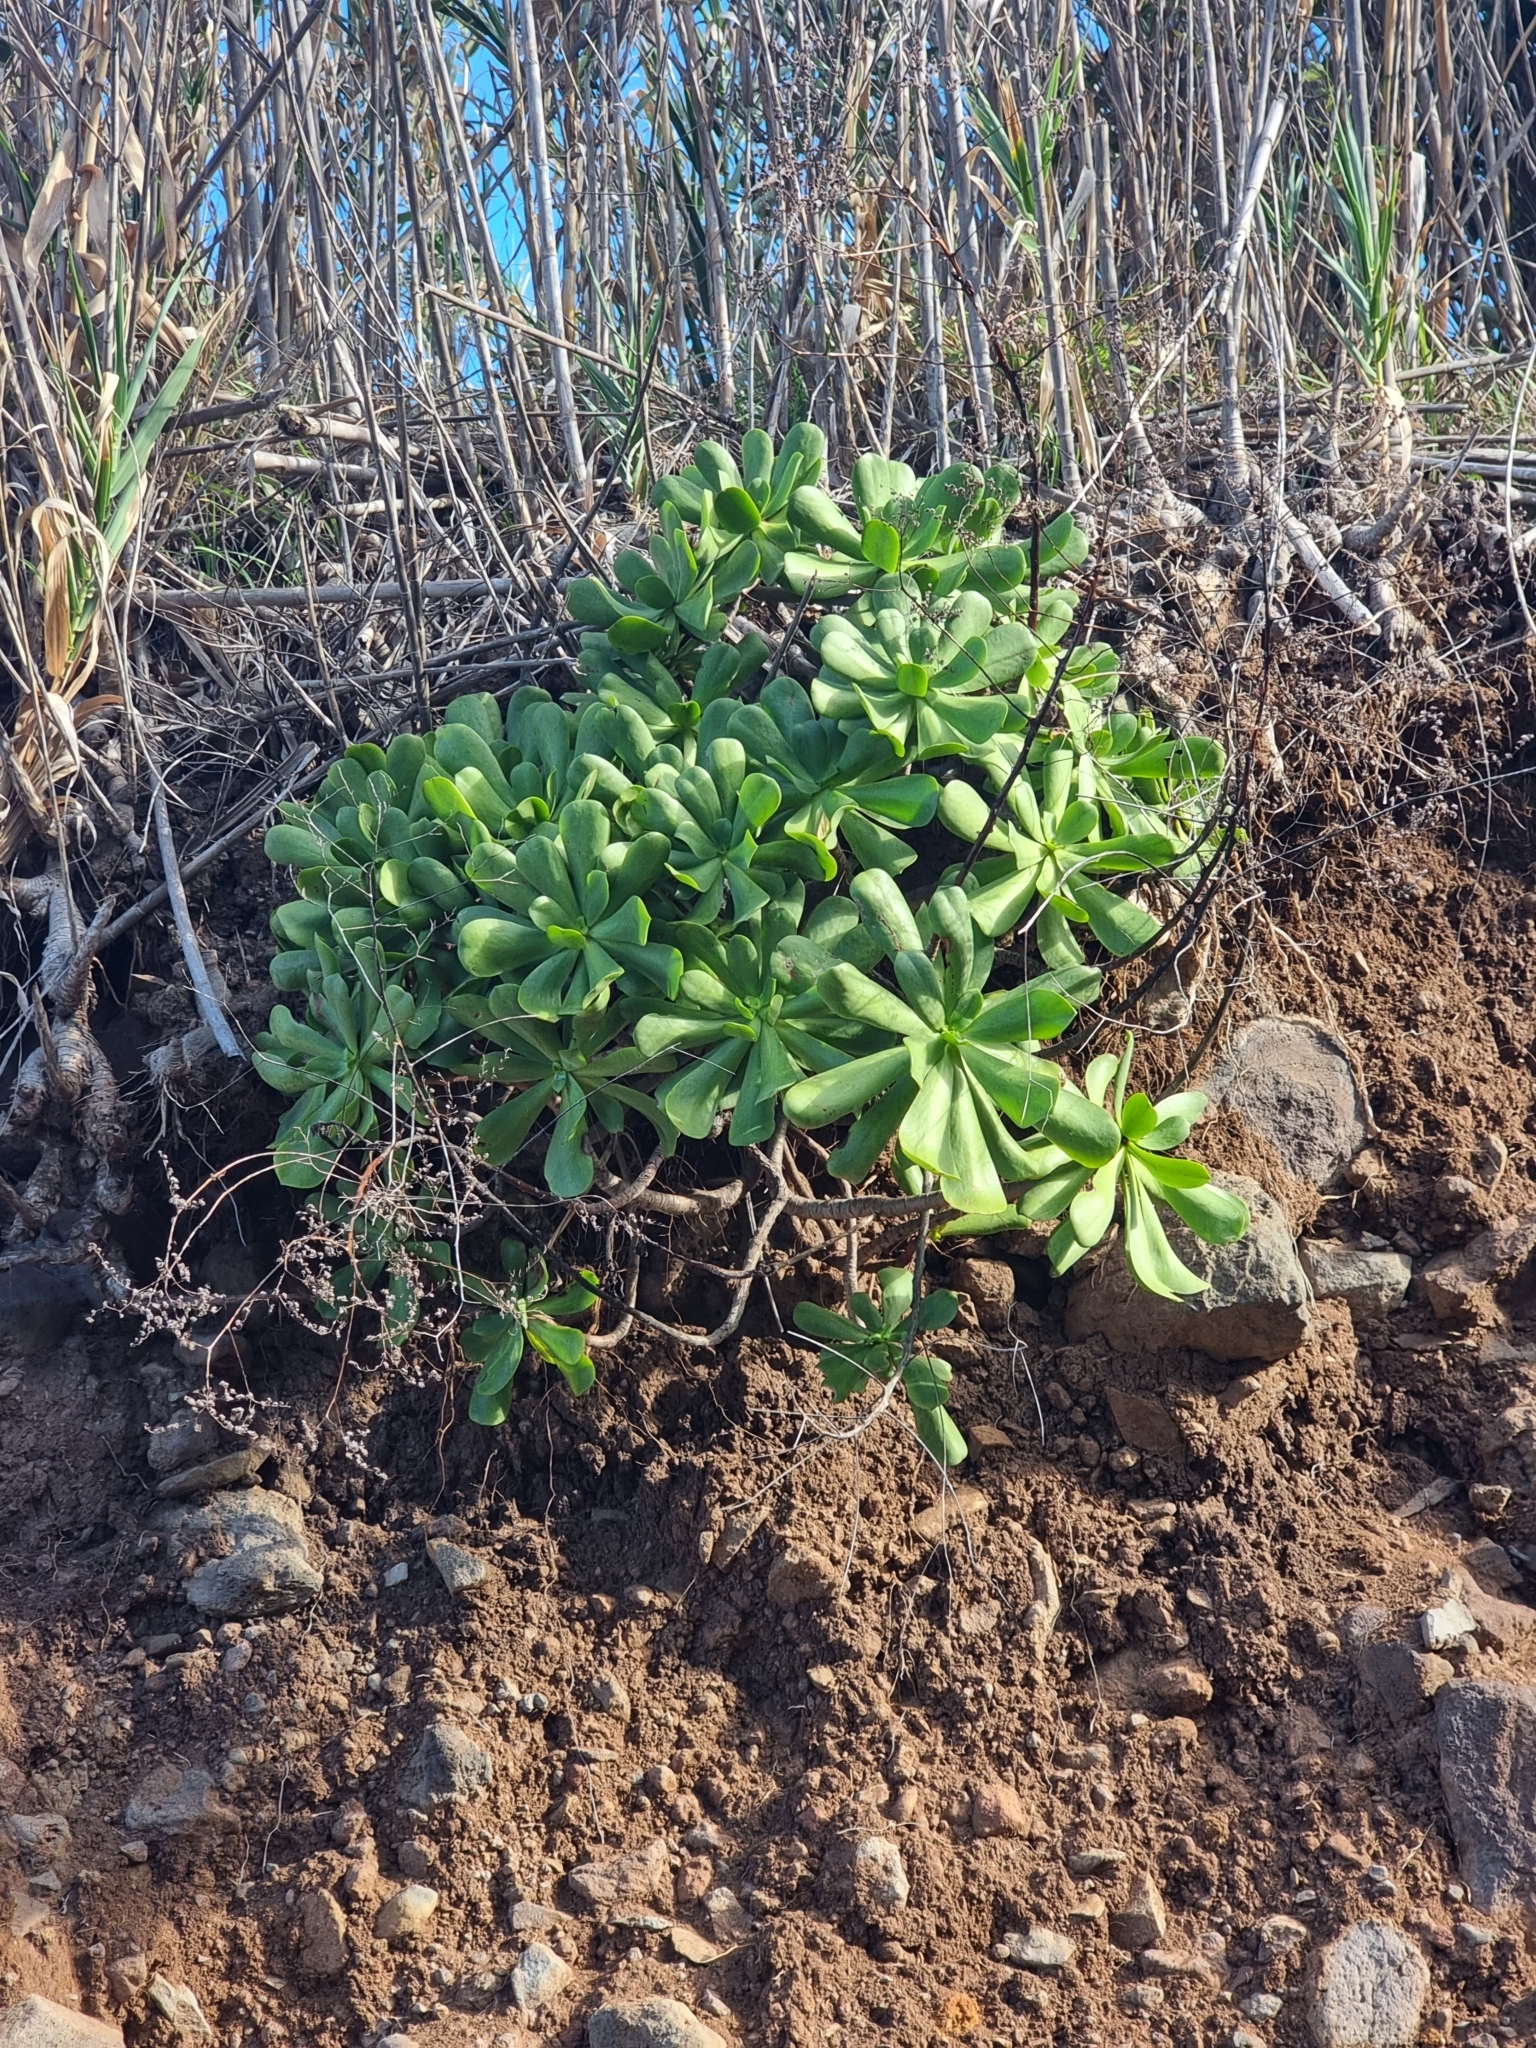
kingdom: Plantae
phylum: Tracheophyta
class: Magnoliopsida
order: Saxifragales
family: Crassulaceae
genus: Aeonium
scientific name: Aeonium glutinosum
